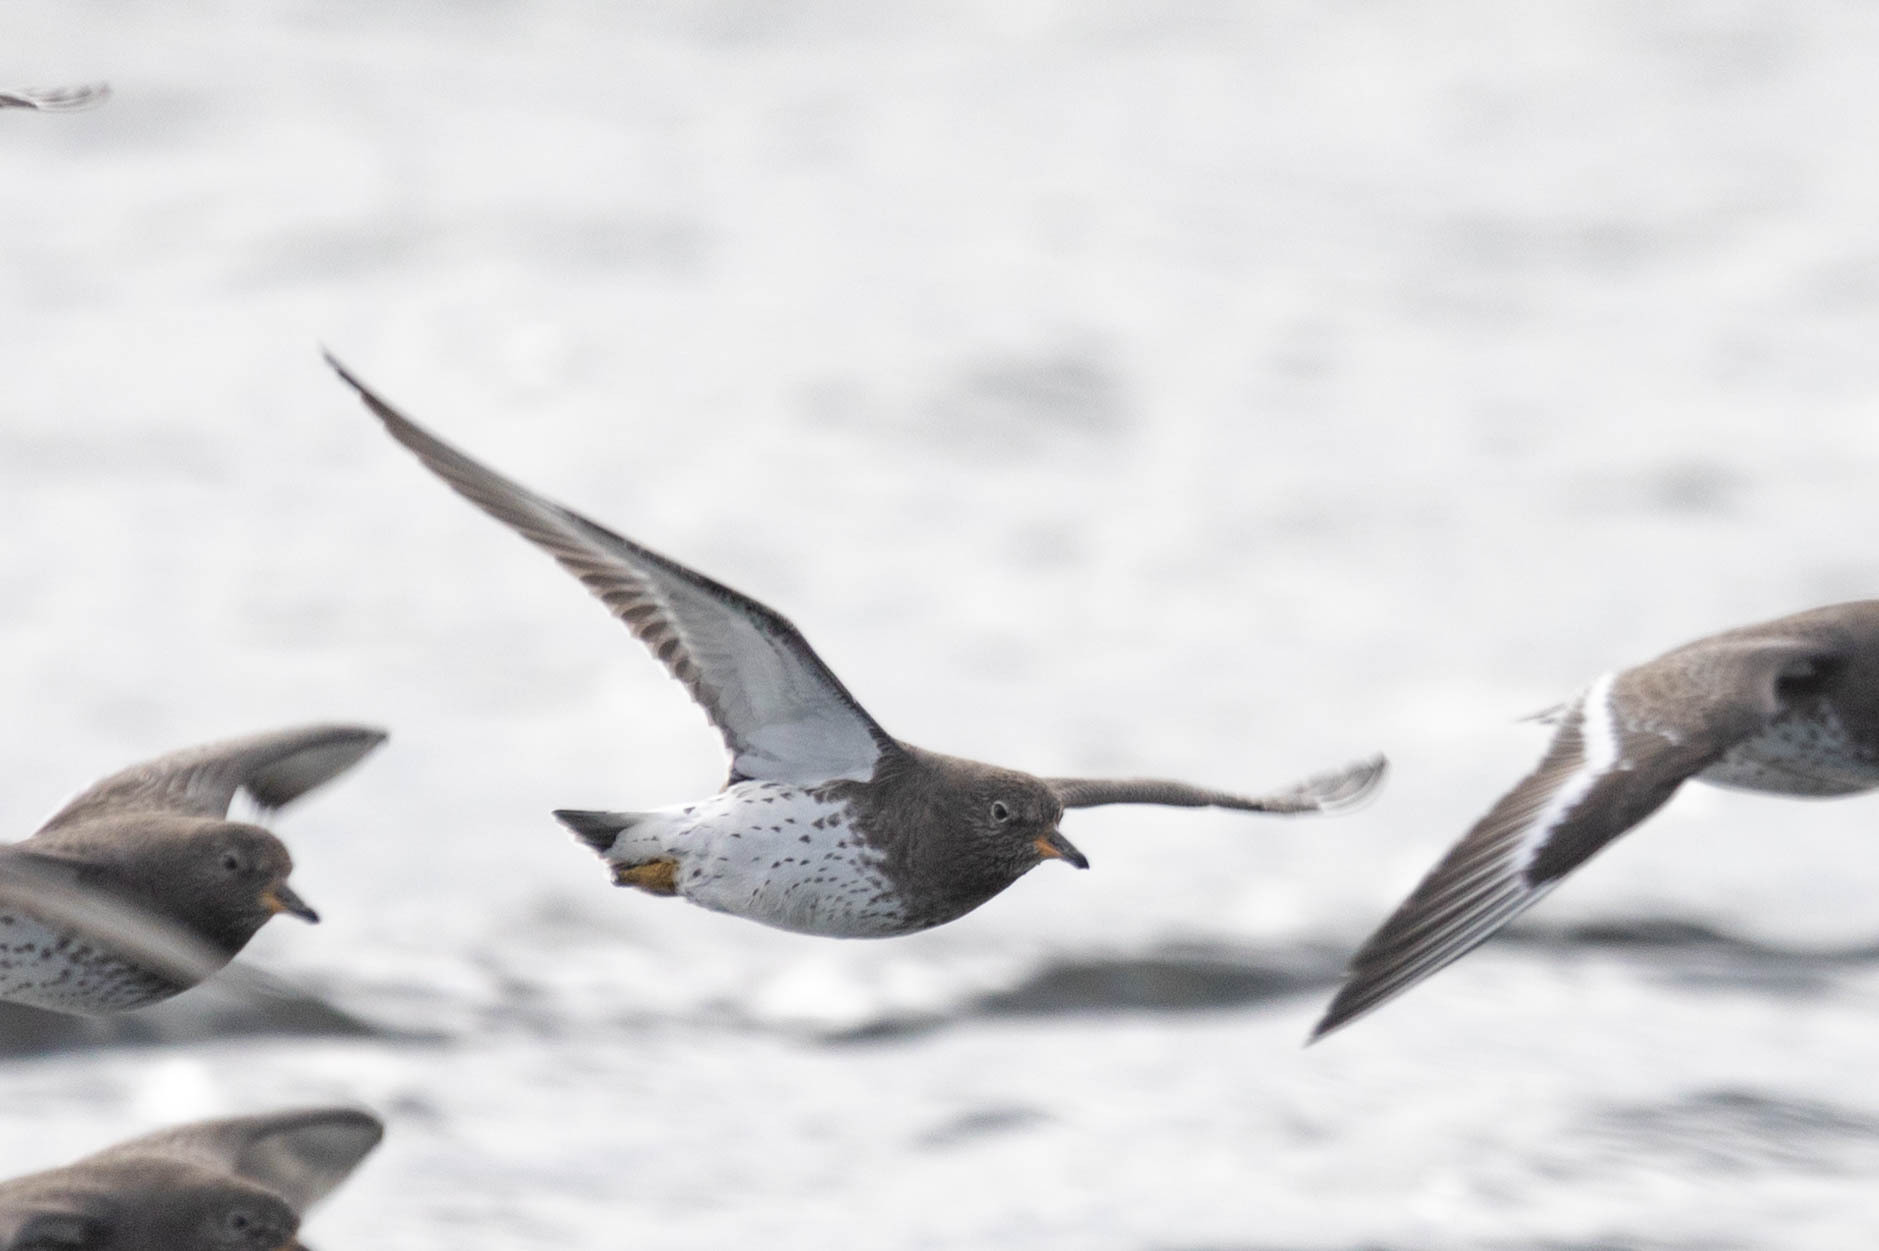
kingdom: Animalia
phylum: Chordata
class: Aves
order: Charadriiformes
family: Scolopacidae
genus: Calidris
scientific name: Calidris virgata
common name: Surfbird
